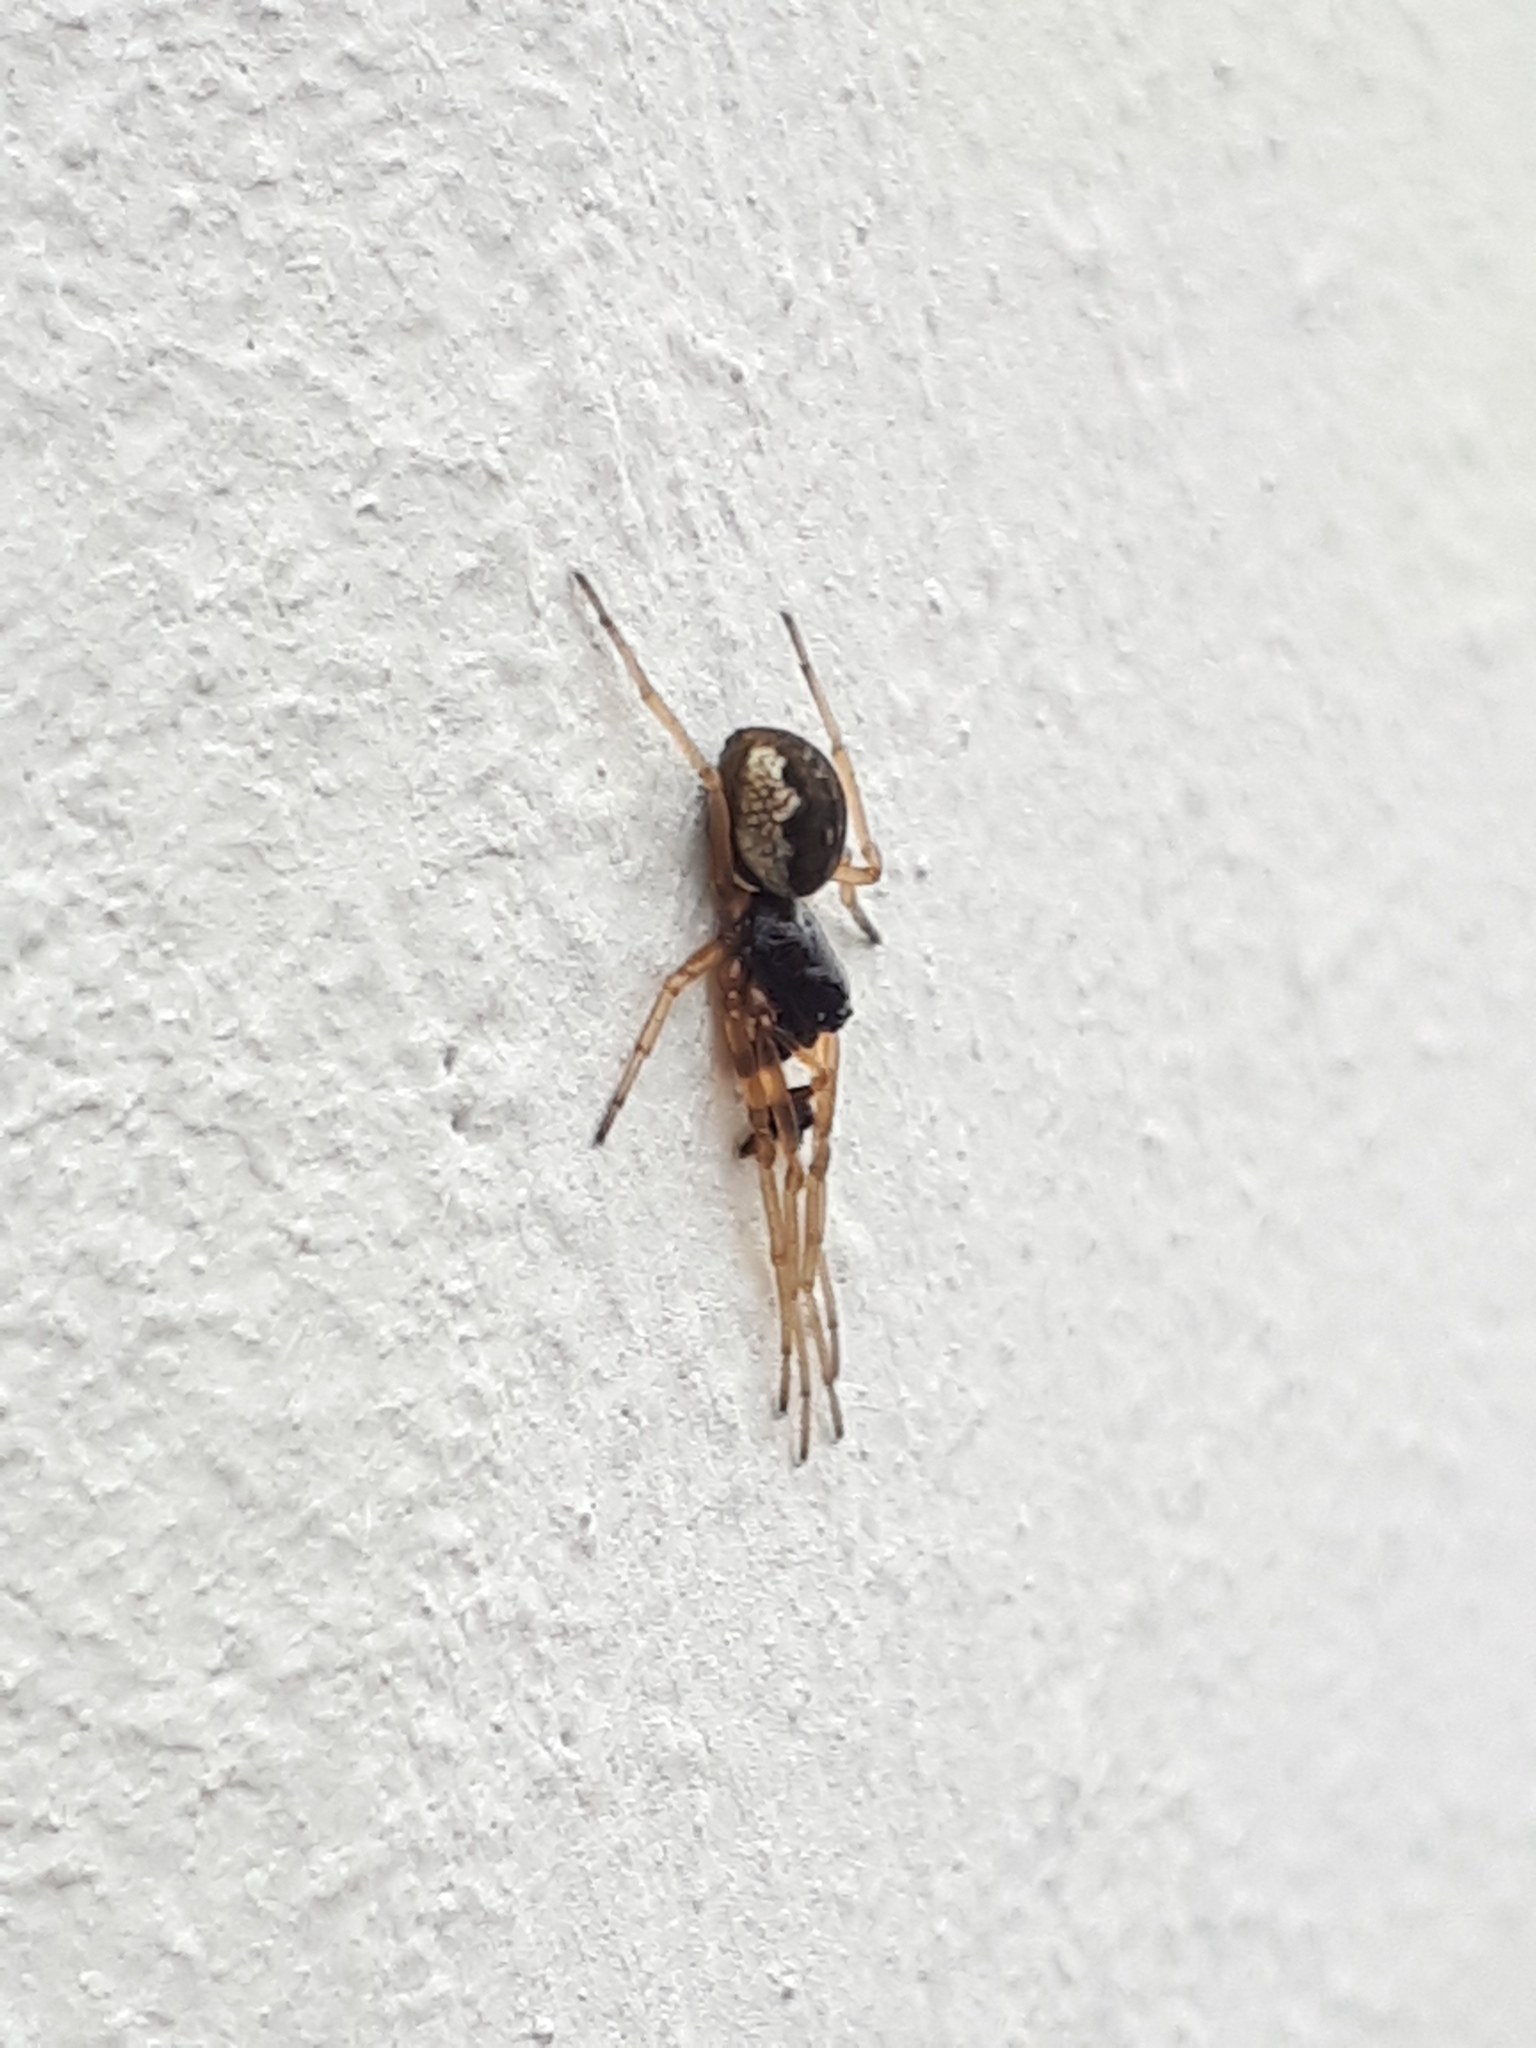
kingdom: Animalia
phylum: Arthropoda
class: Arachnida
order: Araneae
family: Tetragnathidae
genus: Pachygnatha
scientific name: Pachygnatha degeeri
